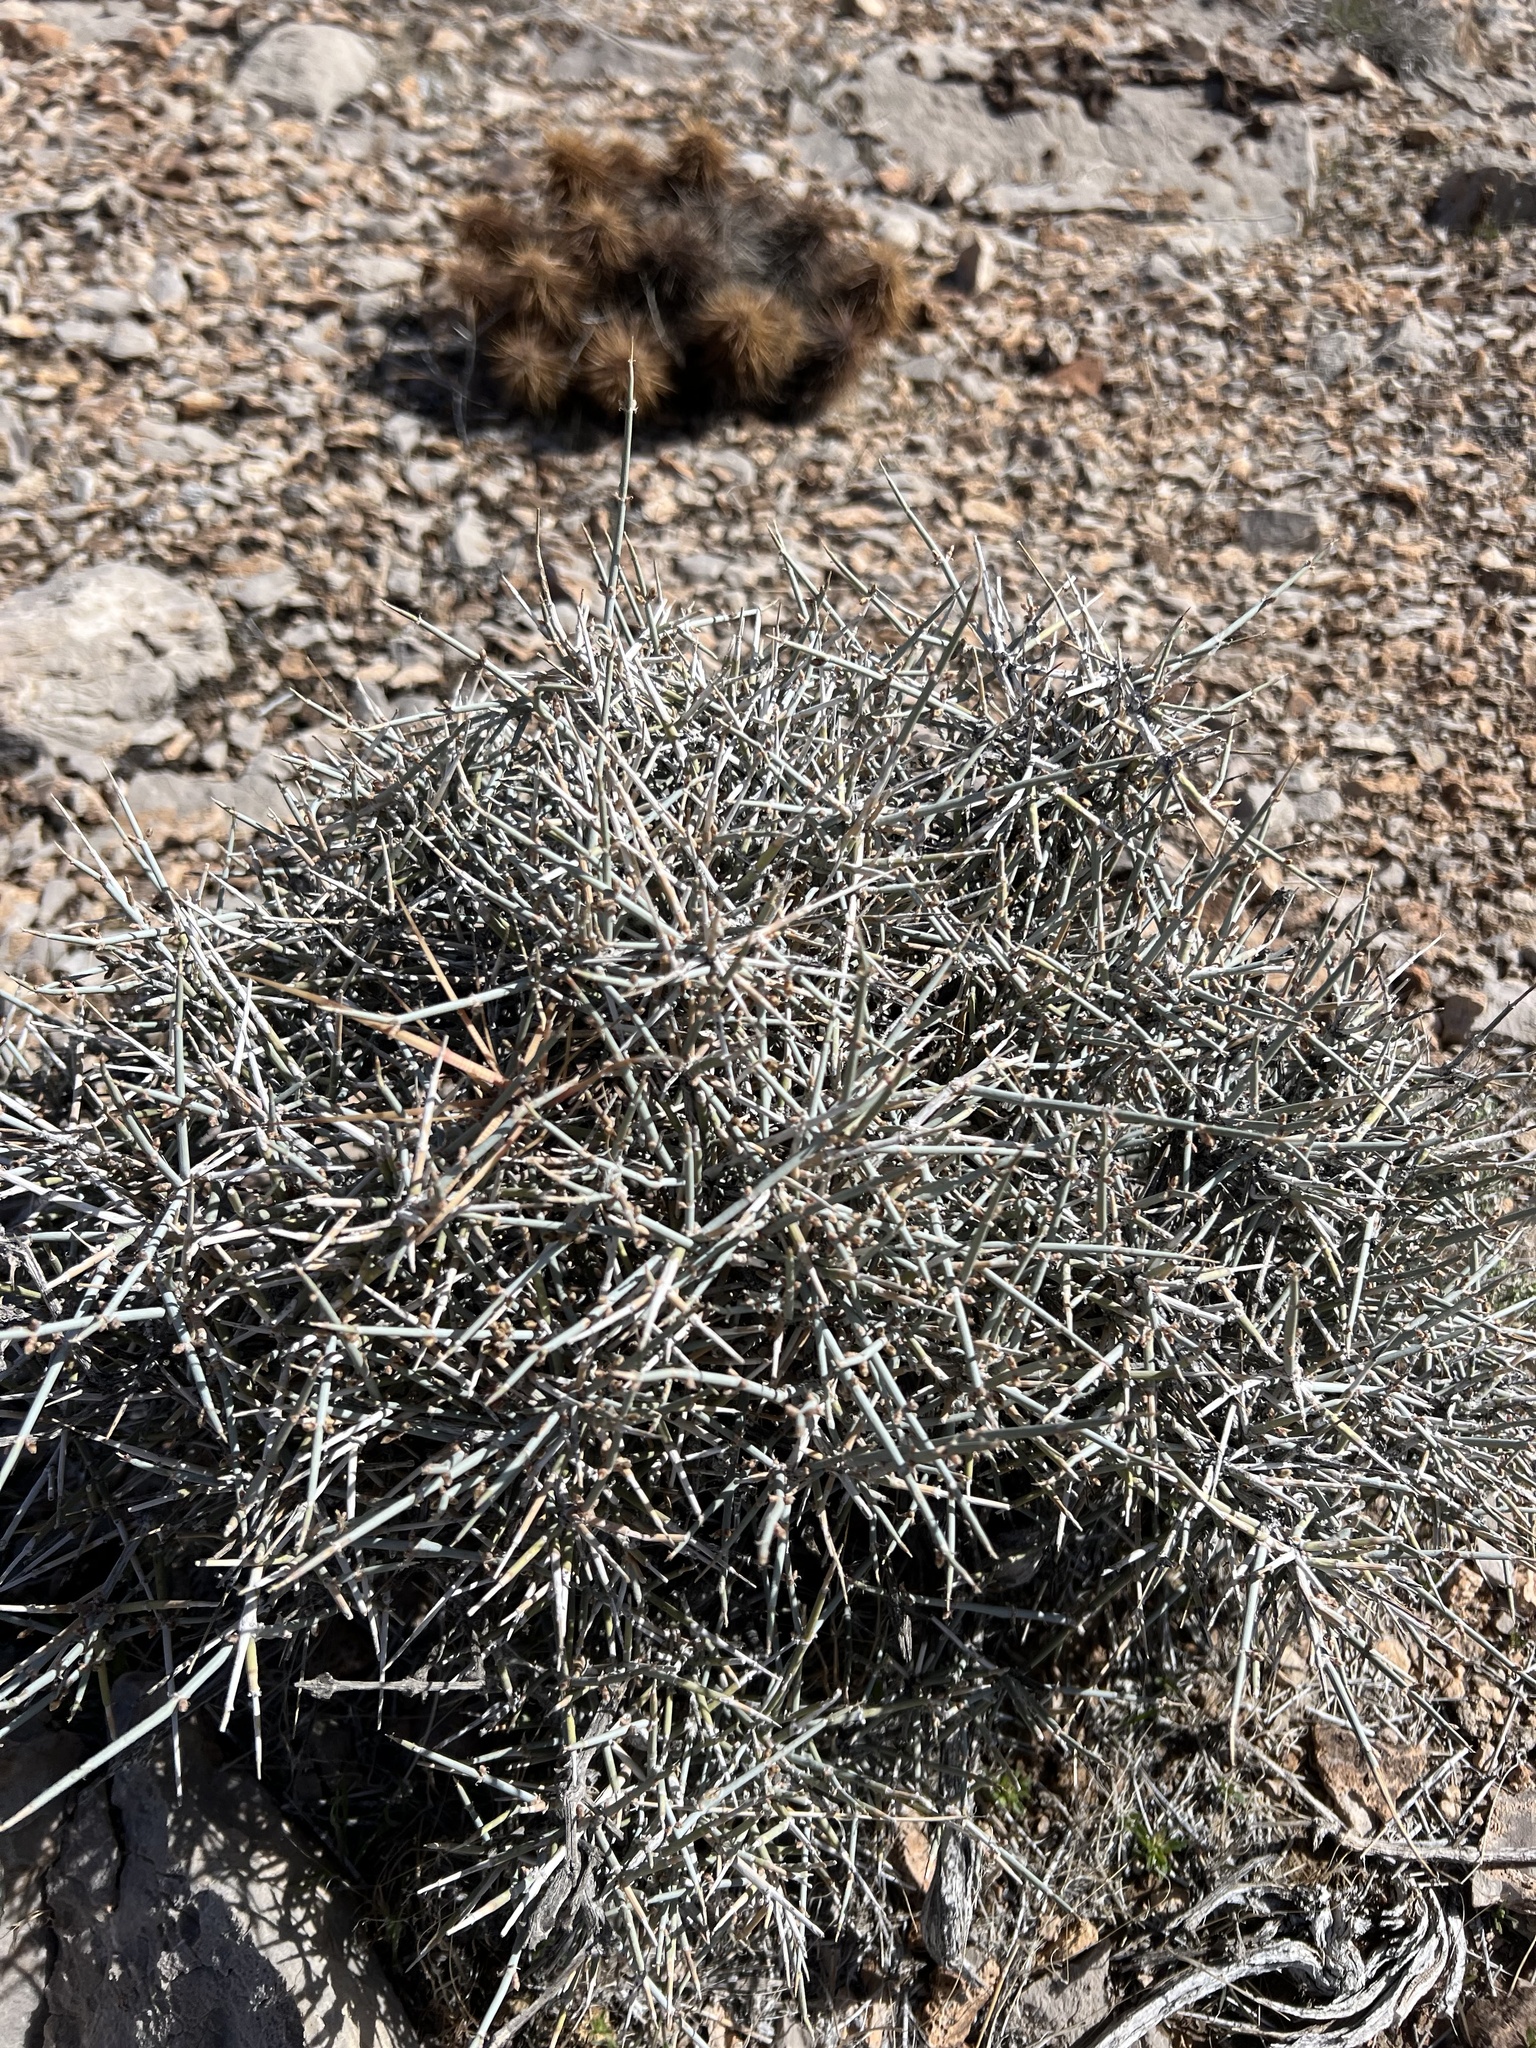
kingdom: Plantae
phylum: Tracheophyta
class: Gnetopsida
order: Ephedrales
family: Ephedraceae
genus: Ephedra
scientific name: Ephedra nevadensis
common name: Gray ephedra
